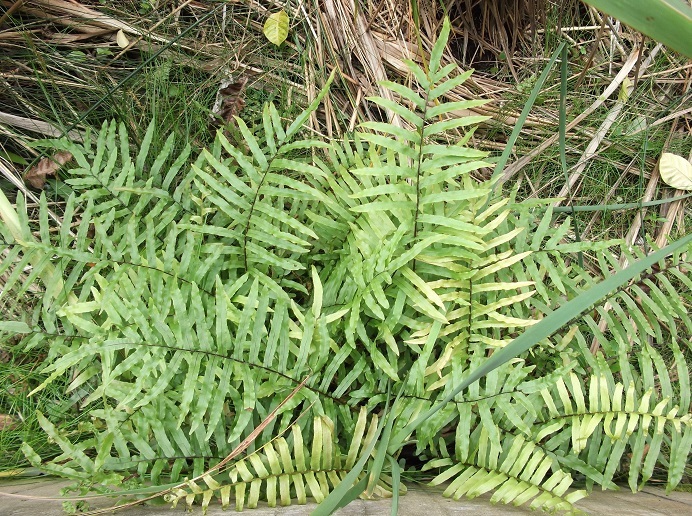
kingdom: Plantae
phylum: Tracheophyta
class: Polypodiopsida
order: Polypodiales
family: Blechnaceae
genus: Parablechnum
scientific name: Parablechnum minus
